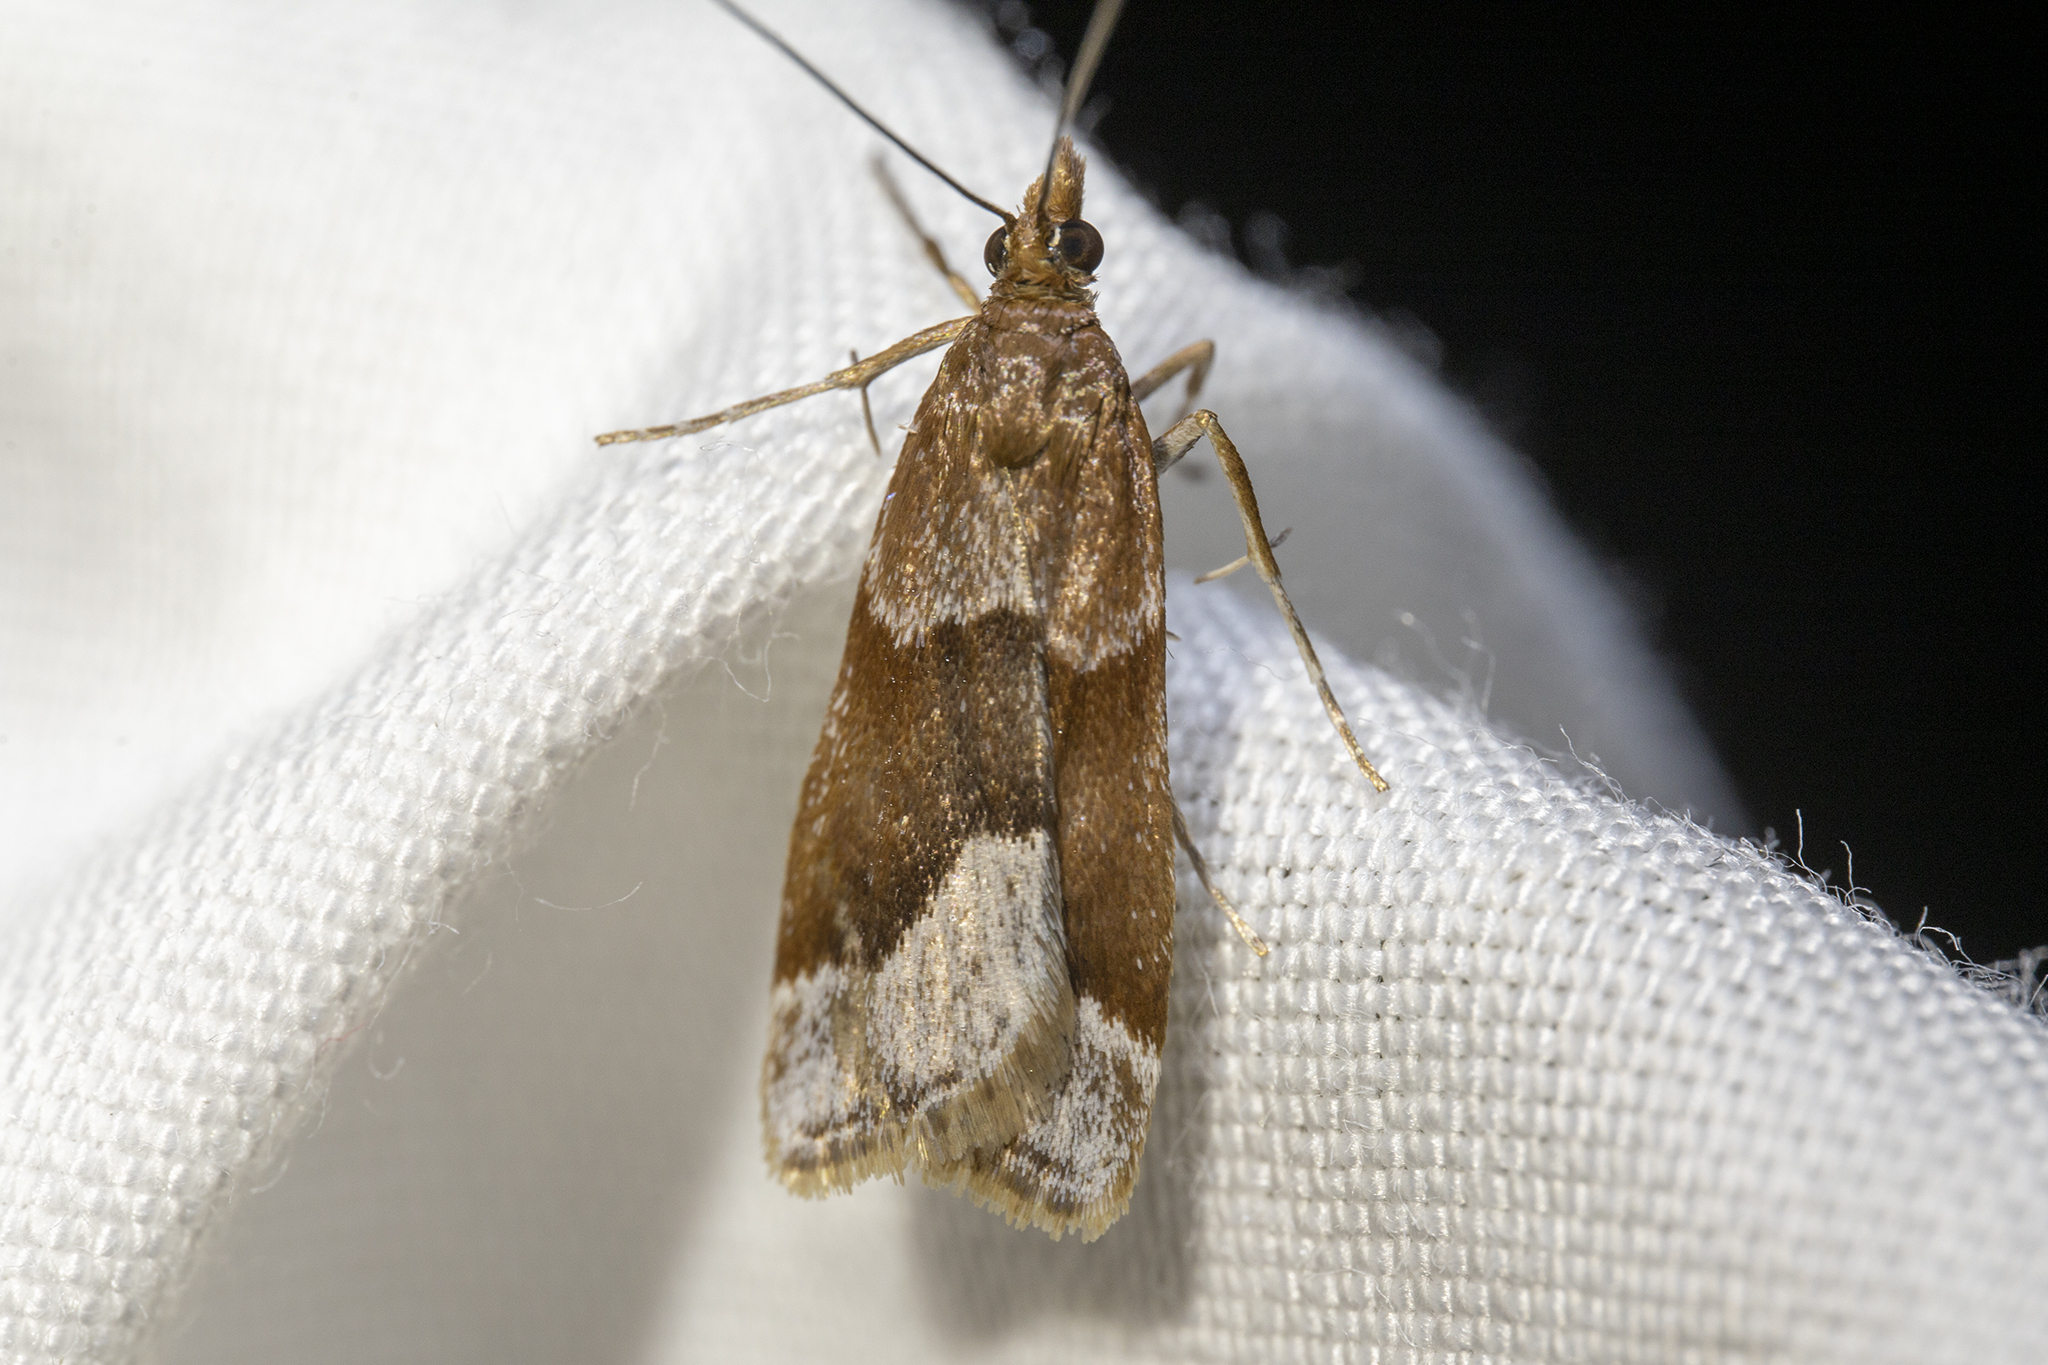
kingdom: Animalia
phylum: Arthropoda
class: Insecta
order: Lepidoptera
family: Crambidae
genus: Eudonia
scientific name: Eudonia feredayi
